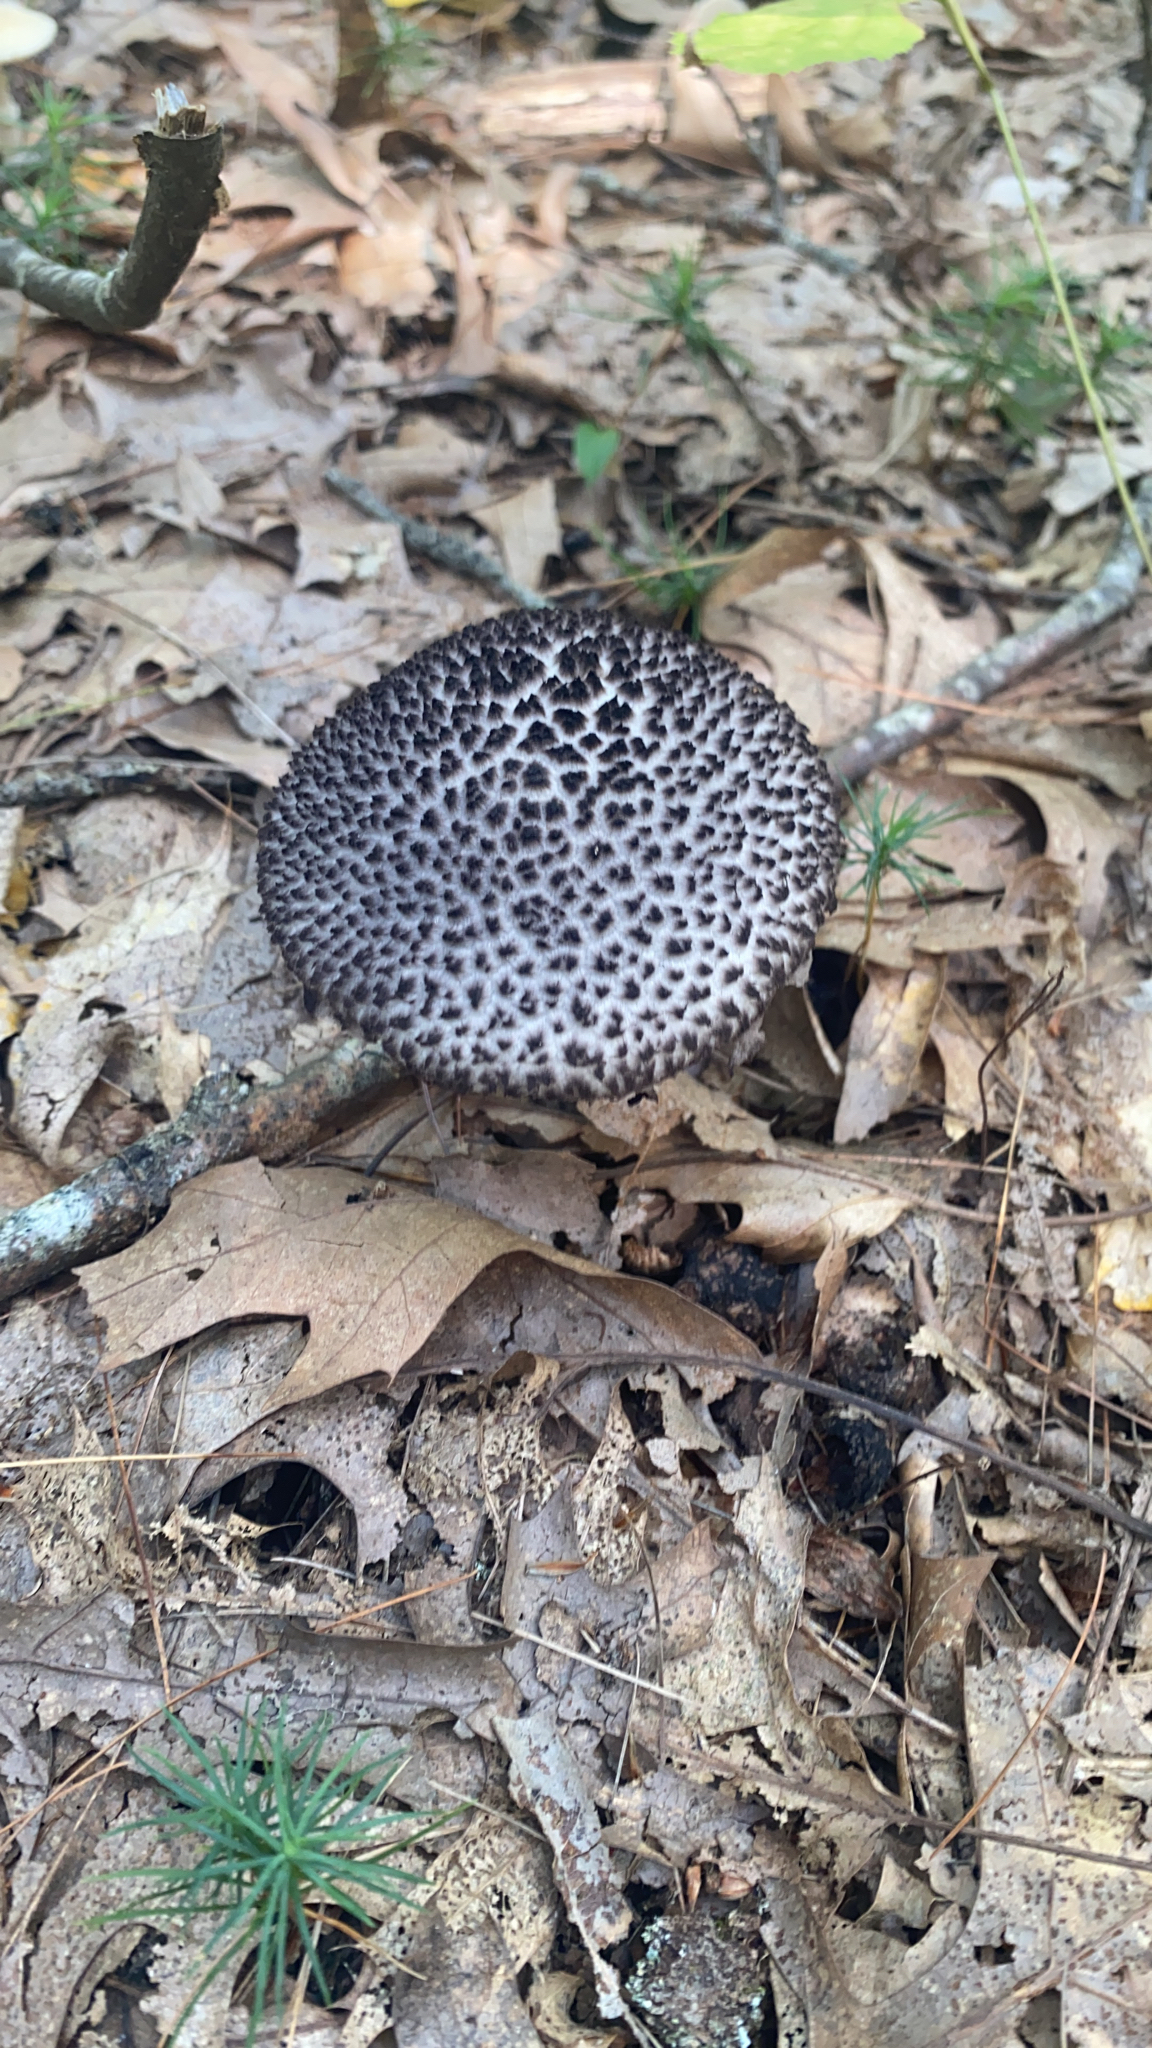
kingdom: Fungi
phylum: Basidiomycota
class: Agaricomycetes
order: Boletales
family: Boletaceae
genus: Strobilomyces
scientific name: Strobilomyces strobilaceus
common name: Old man of the woods
